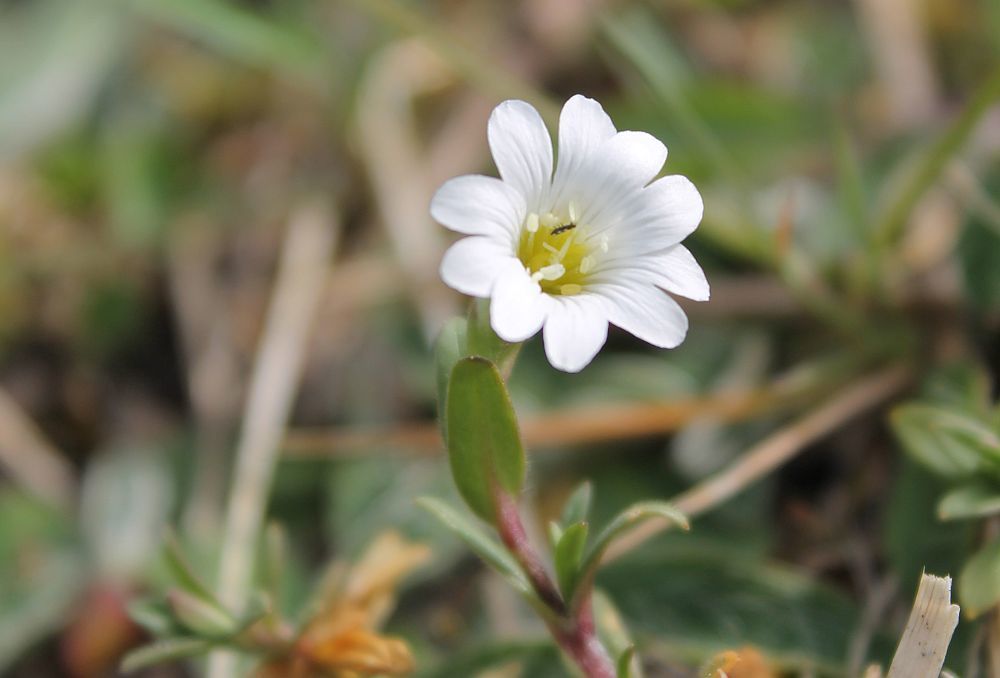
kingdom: Plantae
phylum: Tracheophyta
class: Magnoliopsida
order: Caryophyllales
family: Caryophyllaceae
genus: Cerastium
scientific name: Cerastium arvense
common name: Field mouse-ear
